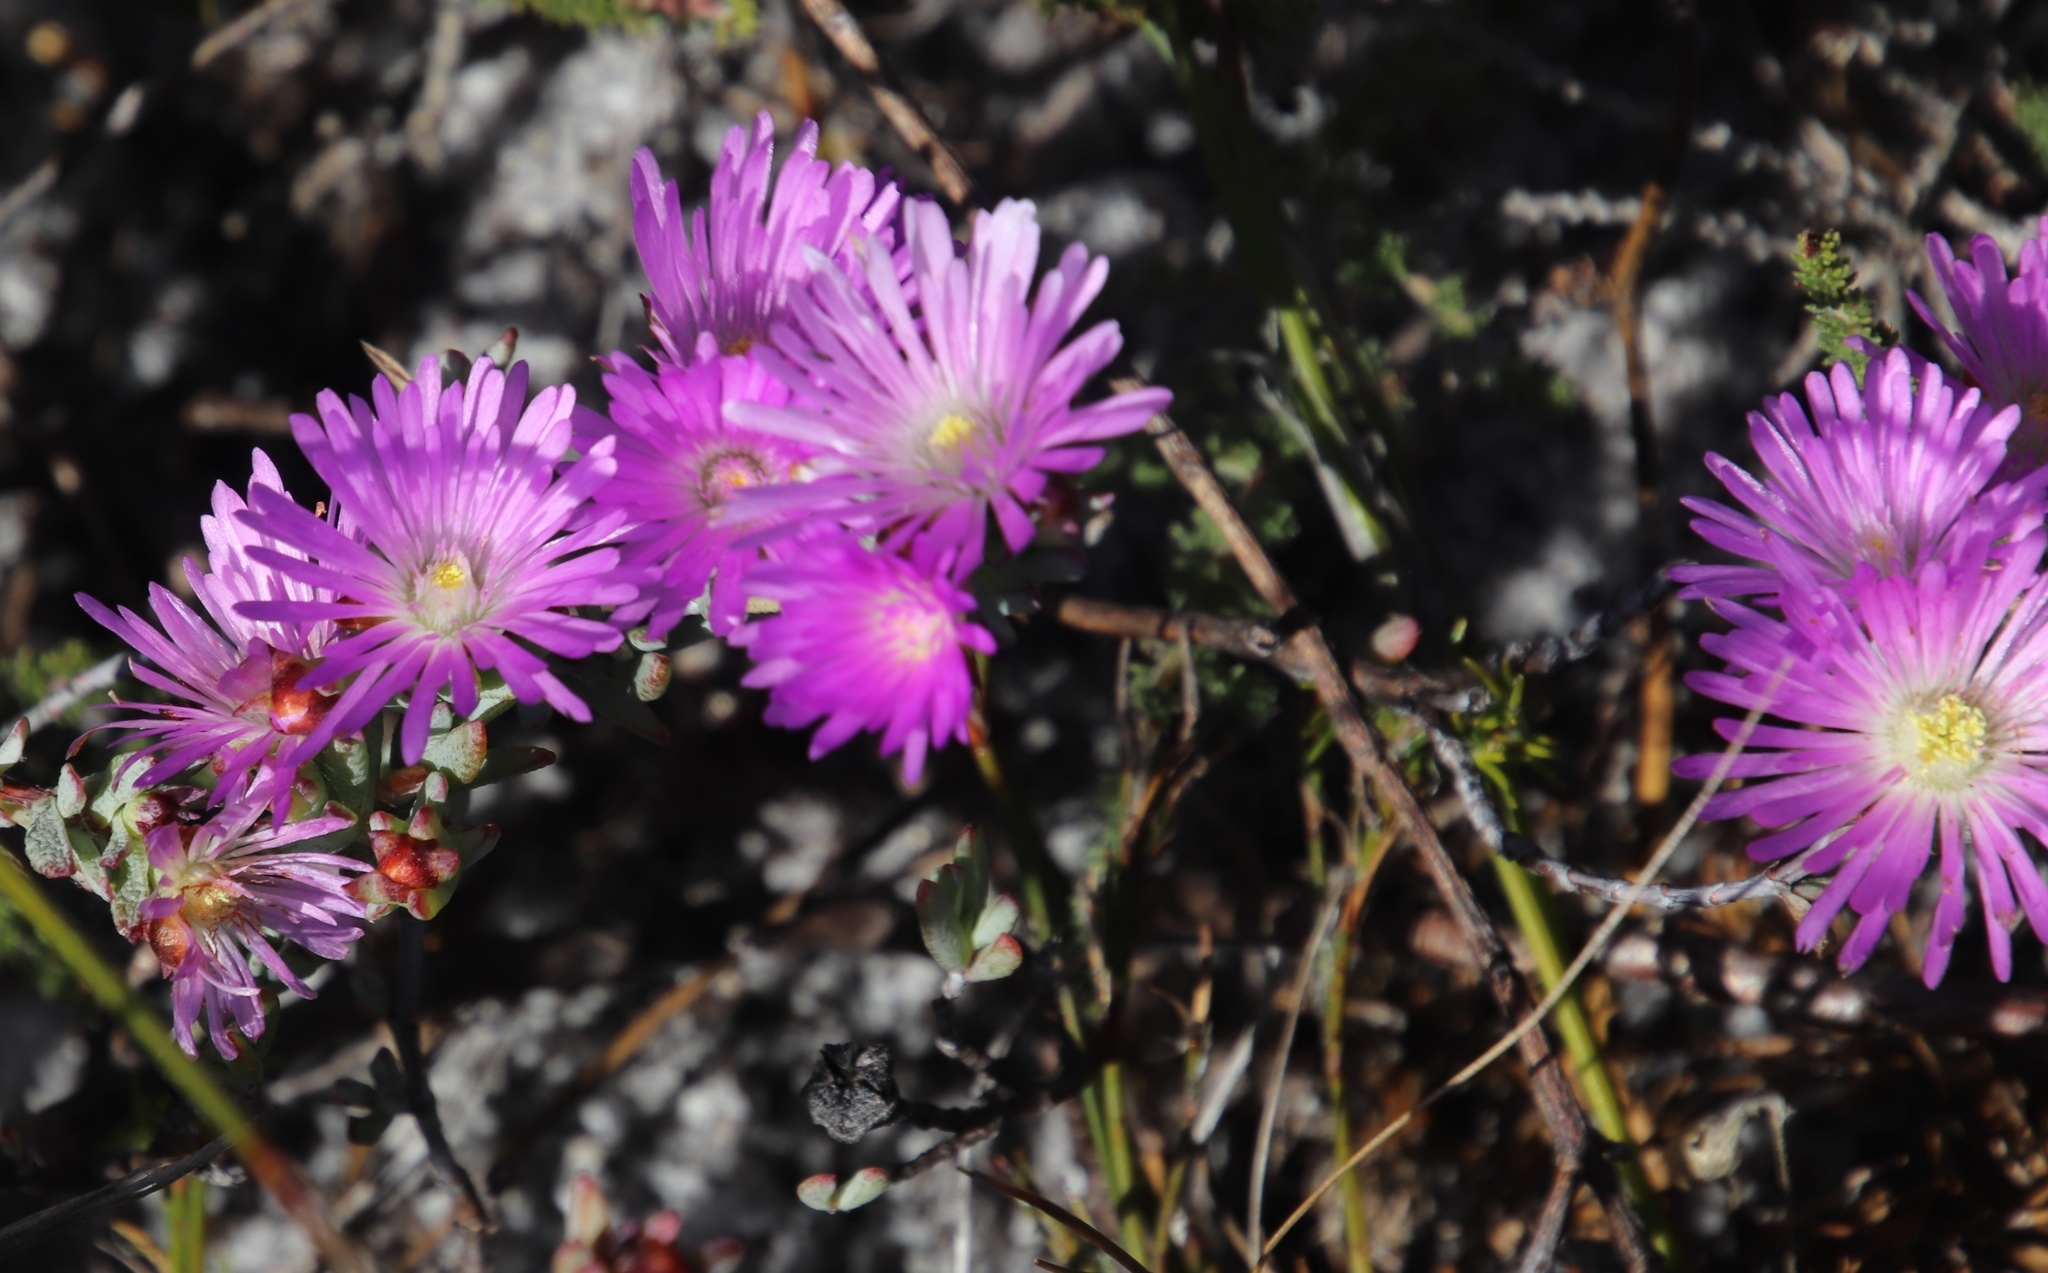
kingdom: Plantae
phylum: Tracheophyta
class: Magnoliopsida
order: Caryophyllales
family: Aizoaceae
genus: Lampranthus
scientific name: Lampranthus glomeratus
